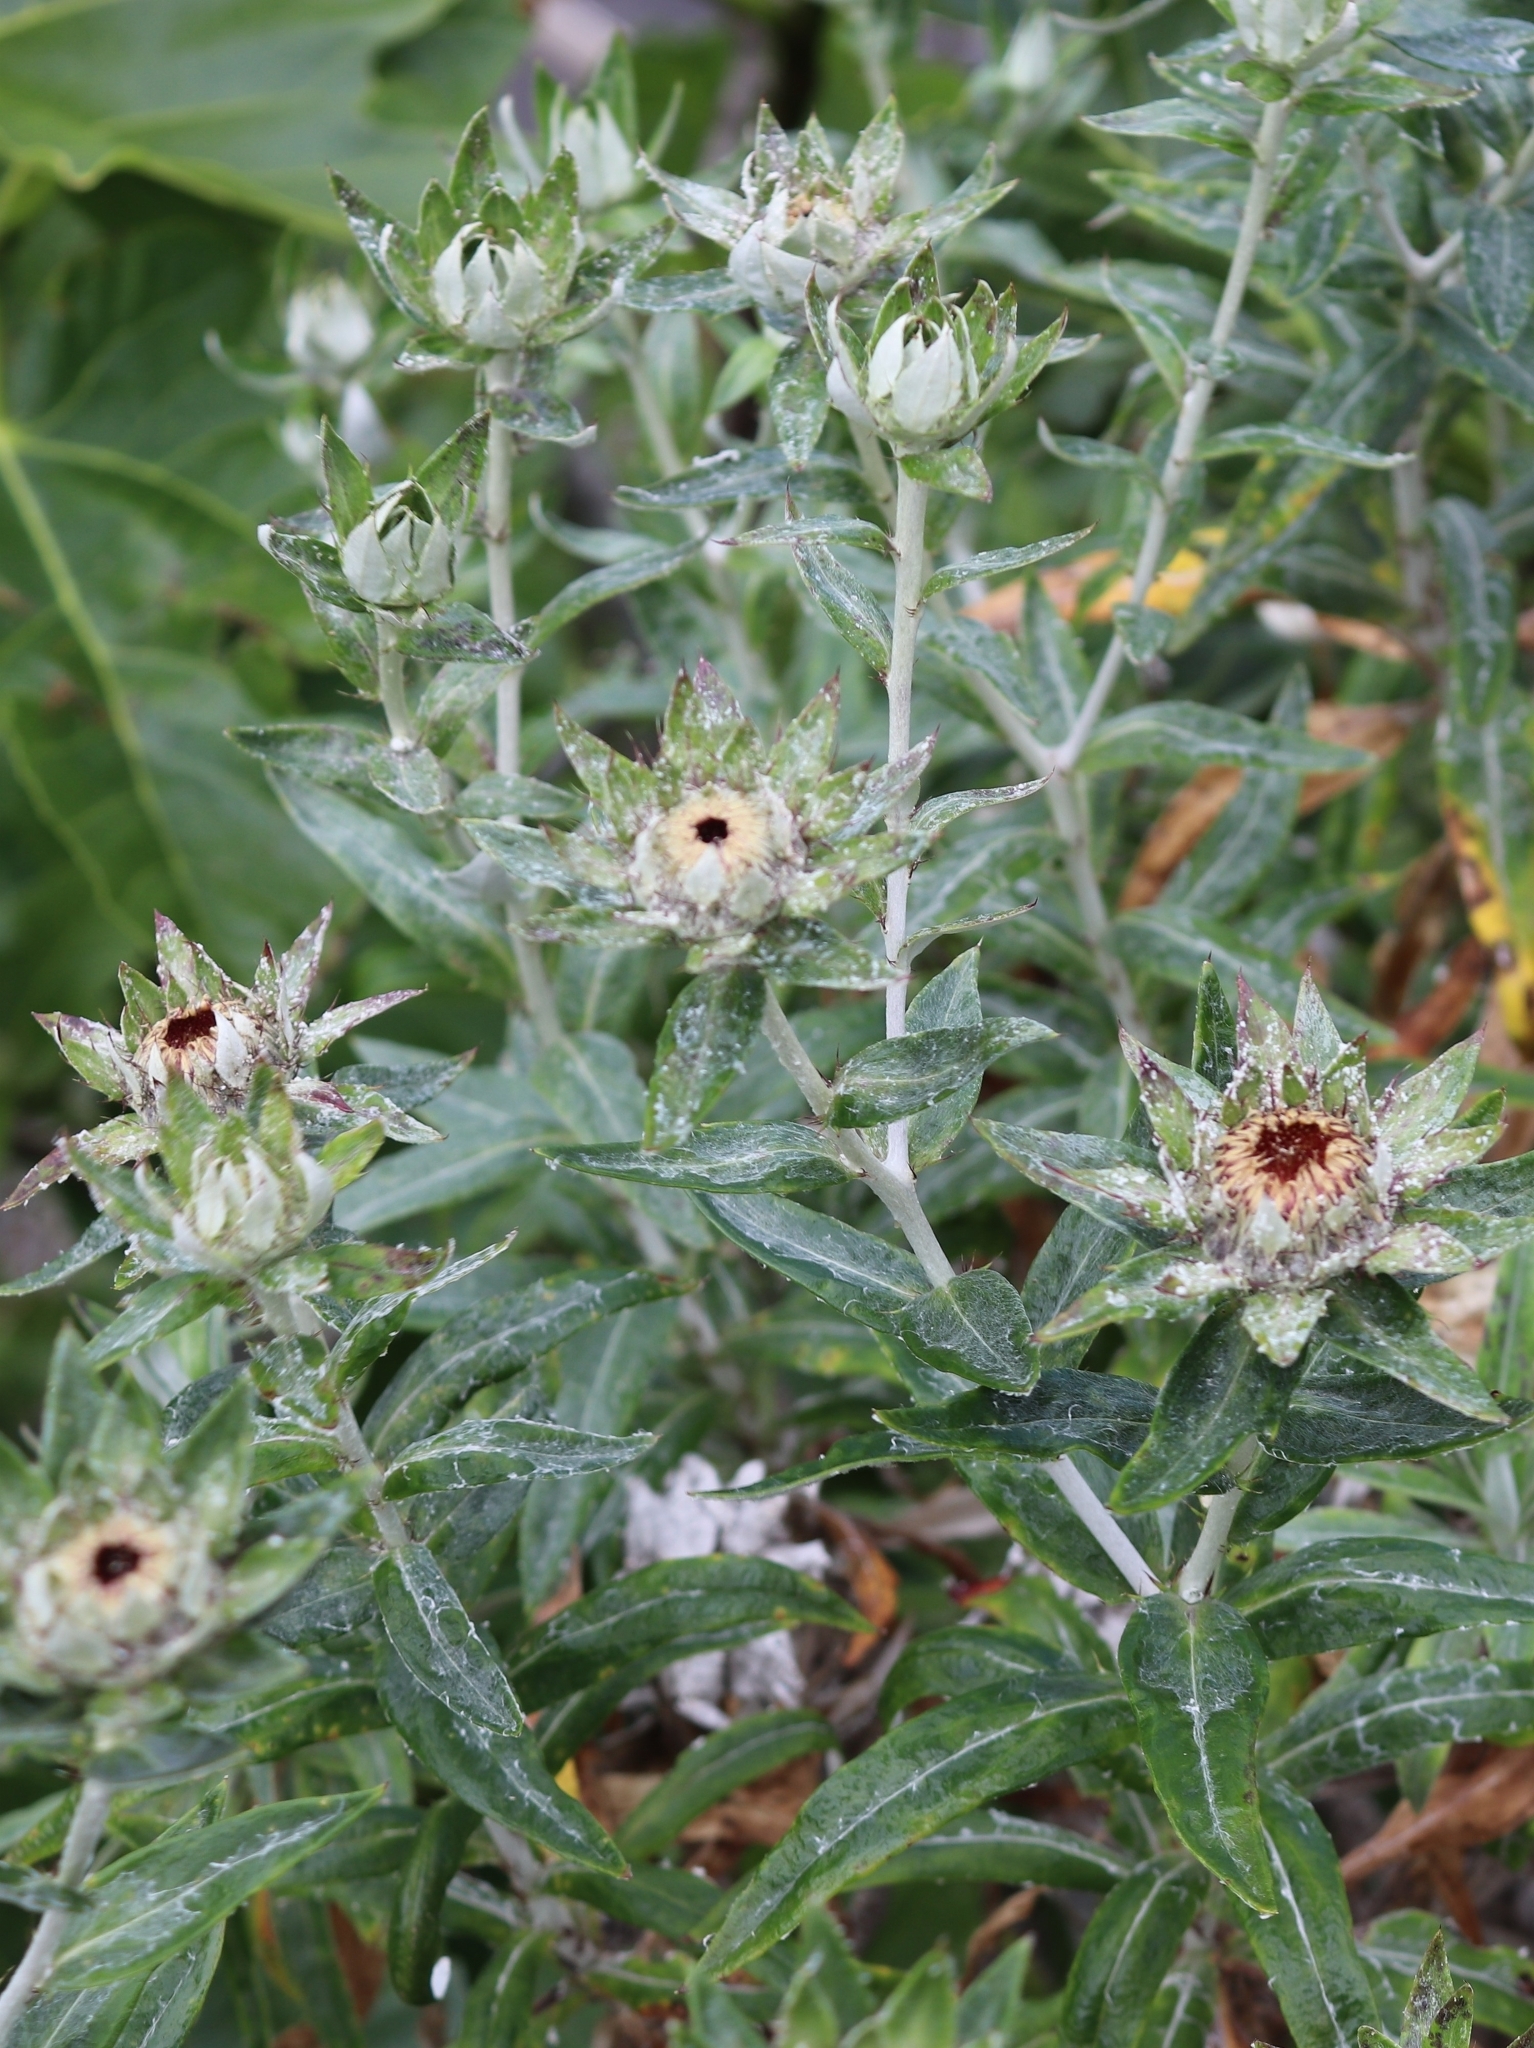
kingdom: Plantae
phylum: Tracheophyta
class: Magnoliopsida
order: Asterales
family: Asteraceae
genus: Carlina
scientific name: Carlina salicifolia
